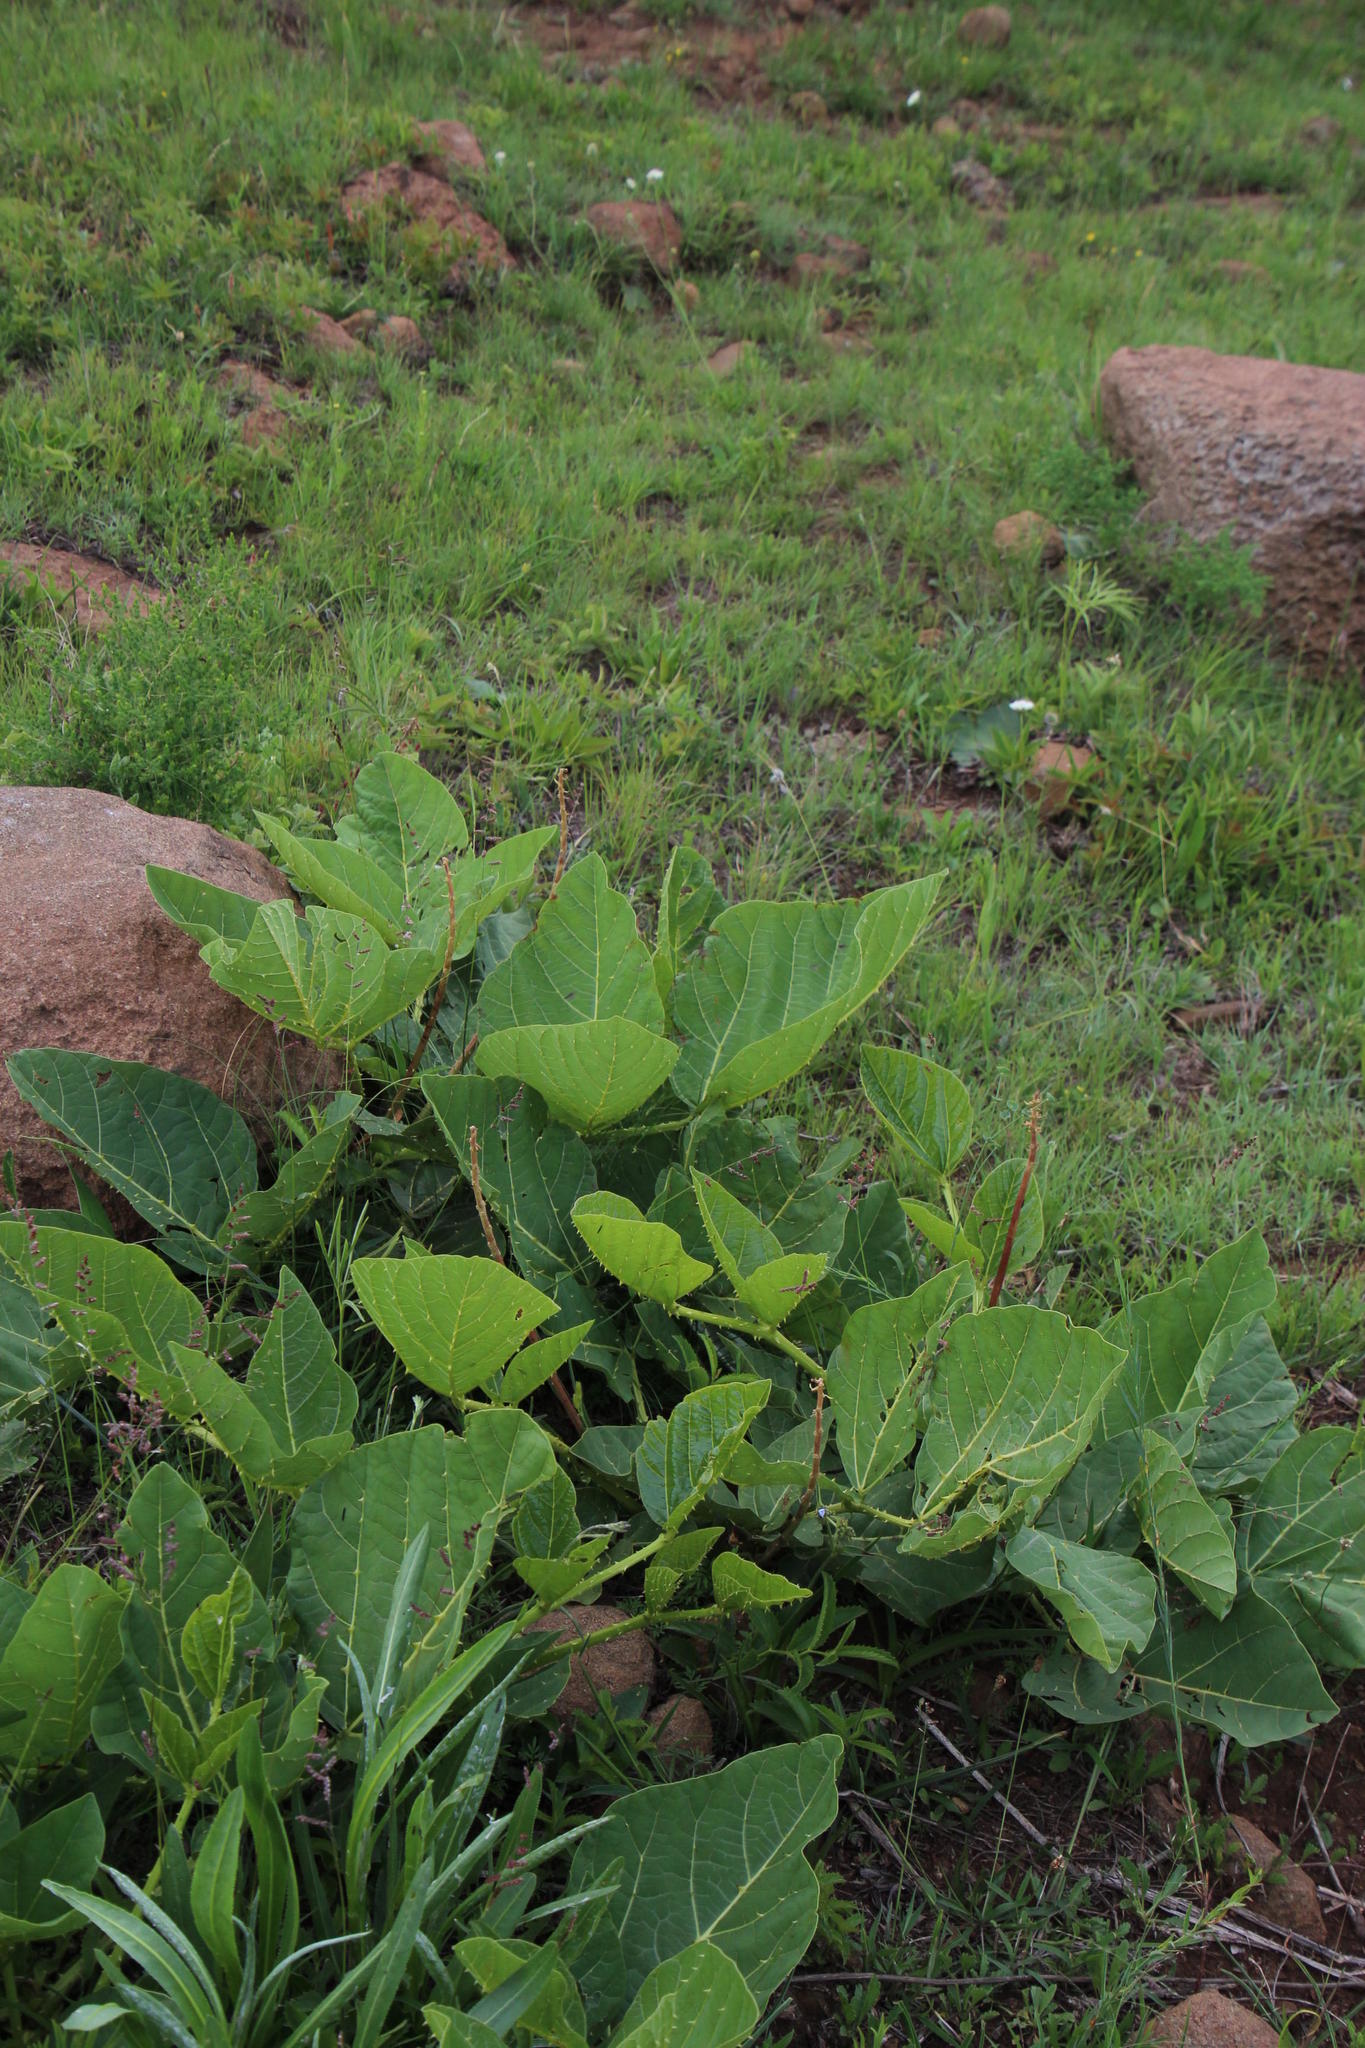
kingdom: Plantae
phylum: Tracheophyta
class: Magnoliopsida
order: Fabales
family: Fabaceae
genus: Erythrina
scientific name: Erythrina zeyheri
